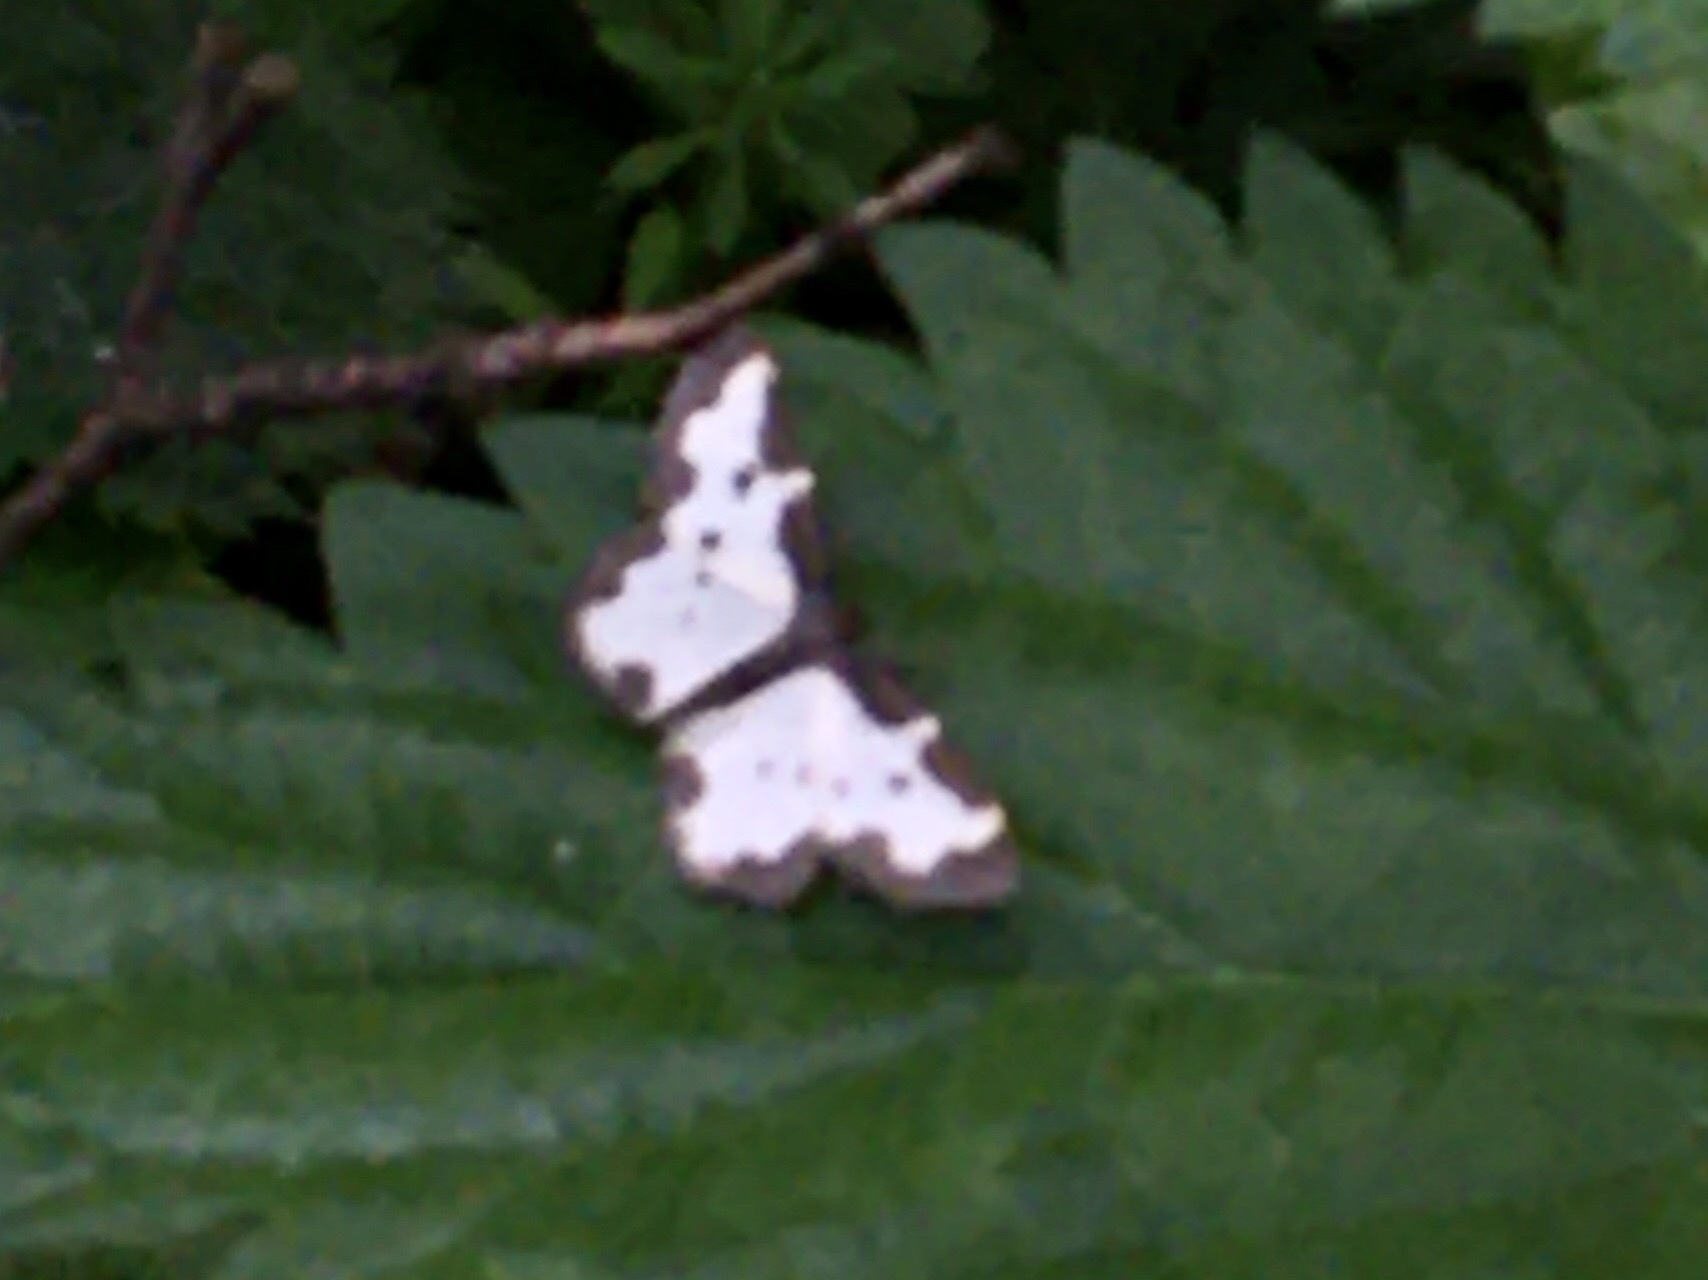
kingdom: Animalia
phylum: Arthropoda
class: Insecta
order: Lepidoptera
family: Geometridae
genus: Lomaspilis
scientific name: Lomaspilis marginata
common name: Clouded border
